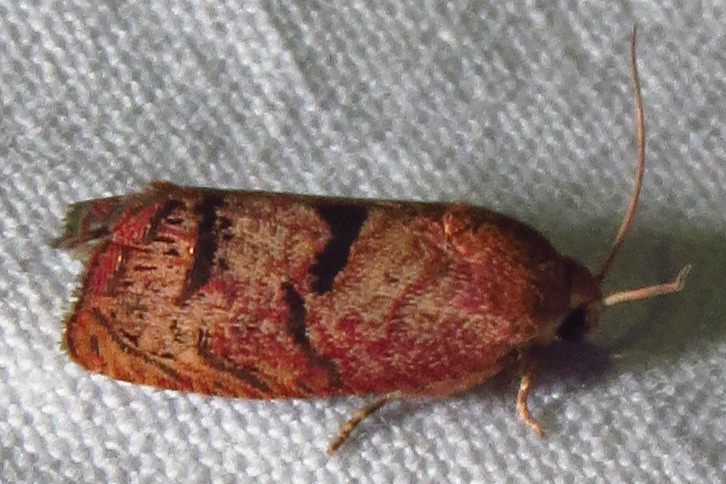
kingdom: Animalia
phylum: Arthropoda
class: Insecta
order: Lepidoptera
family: Tortricidae
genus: Cydia
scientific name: Cydia latiferreana
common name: Filbertworm moth
